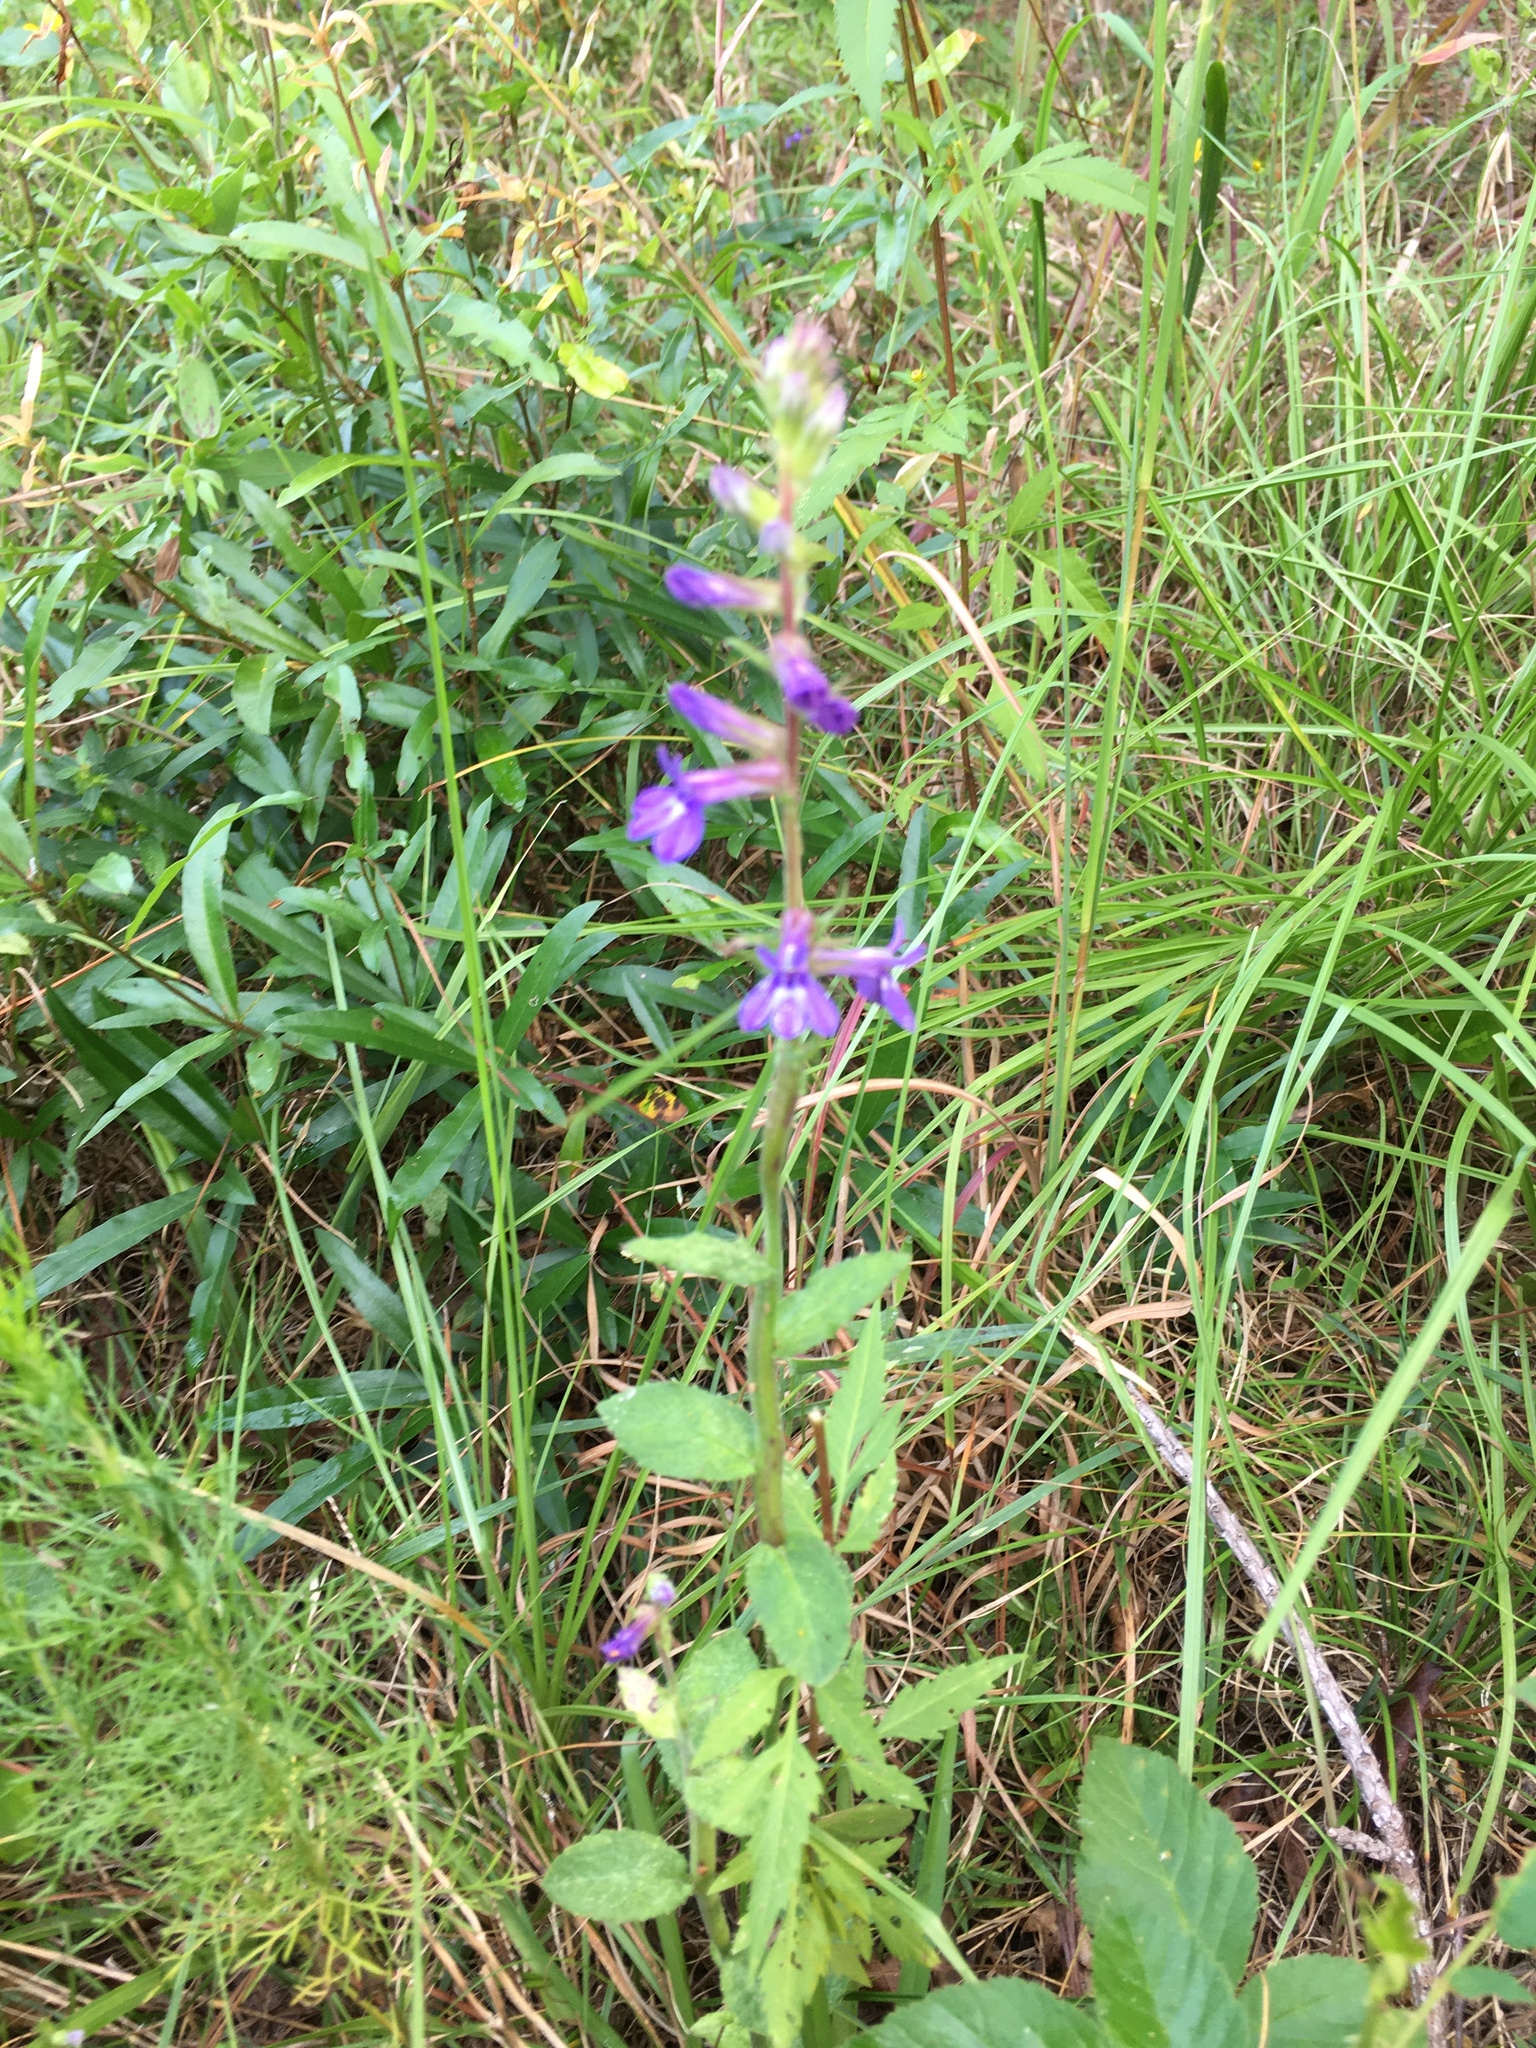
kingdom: Plantae
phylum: Tracheophyta
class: Magnoliopsida
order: Asterales
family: Campanulaceae
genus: Lobelia
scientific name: Lobelia puberula
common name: Purple dewdrop
